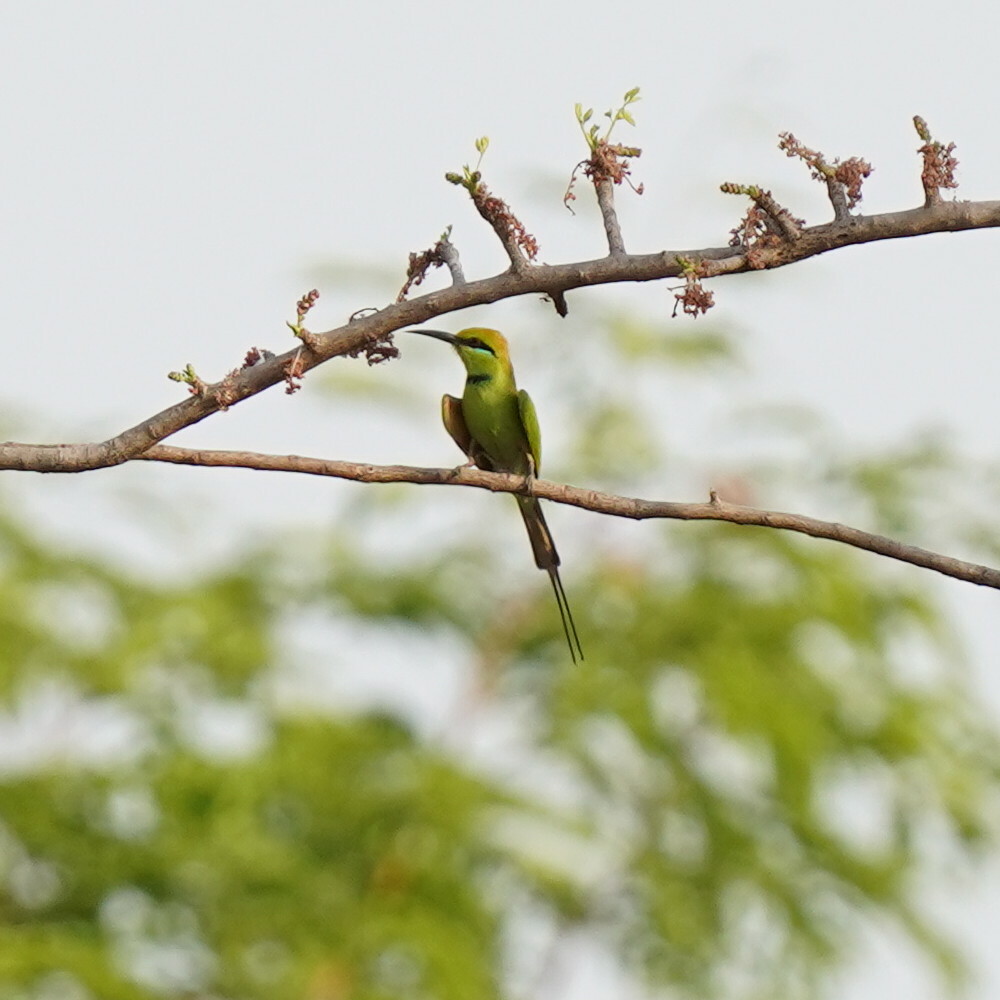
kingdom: Animalia
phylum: Chordata
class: Aves
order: Coraciiformes
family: Meropidae
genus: Merops
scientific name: Merops viridissimus
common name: African green bee-eater
